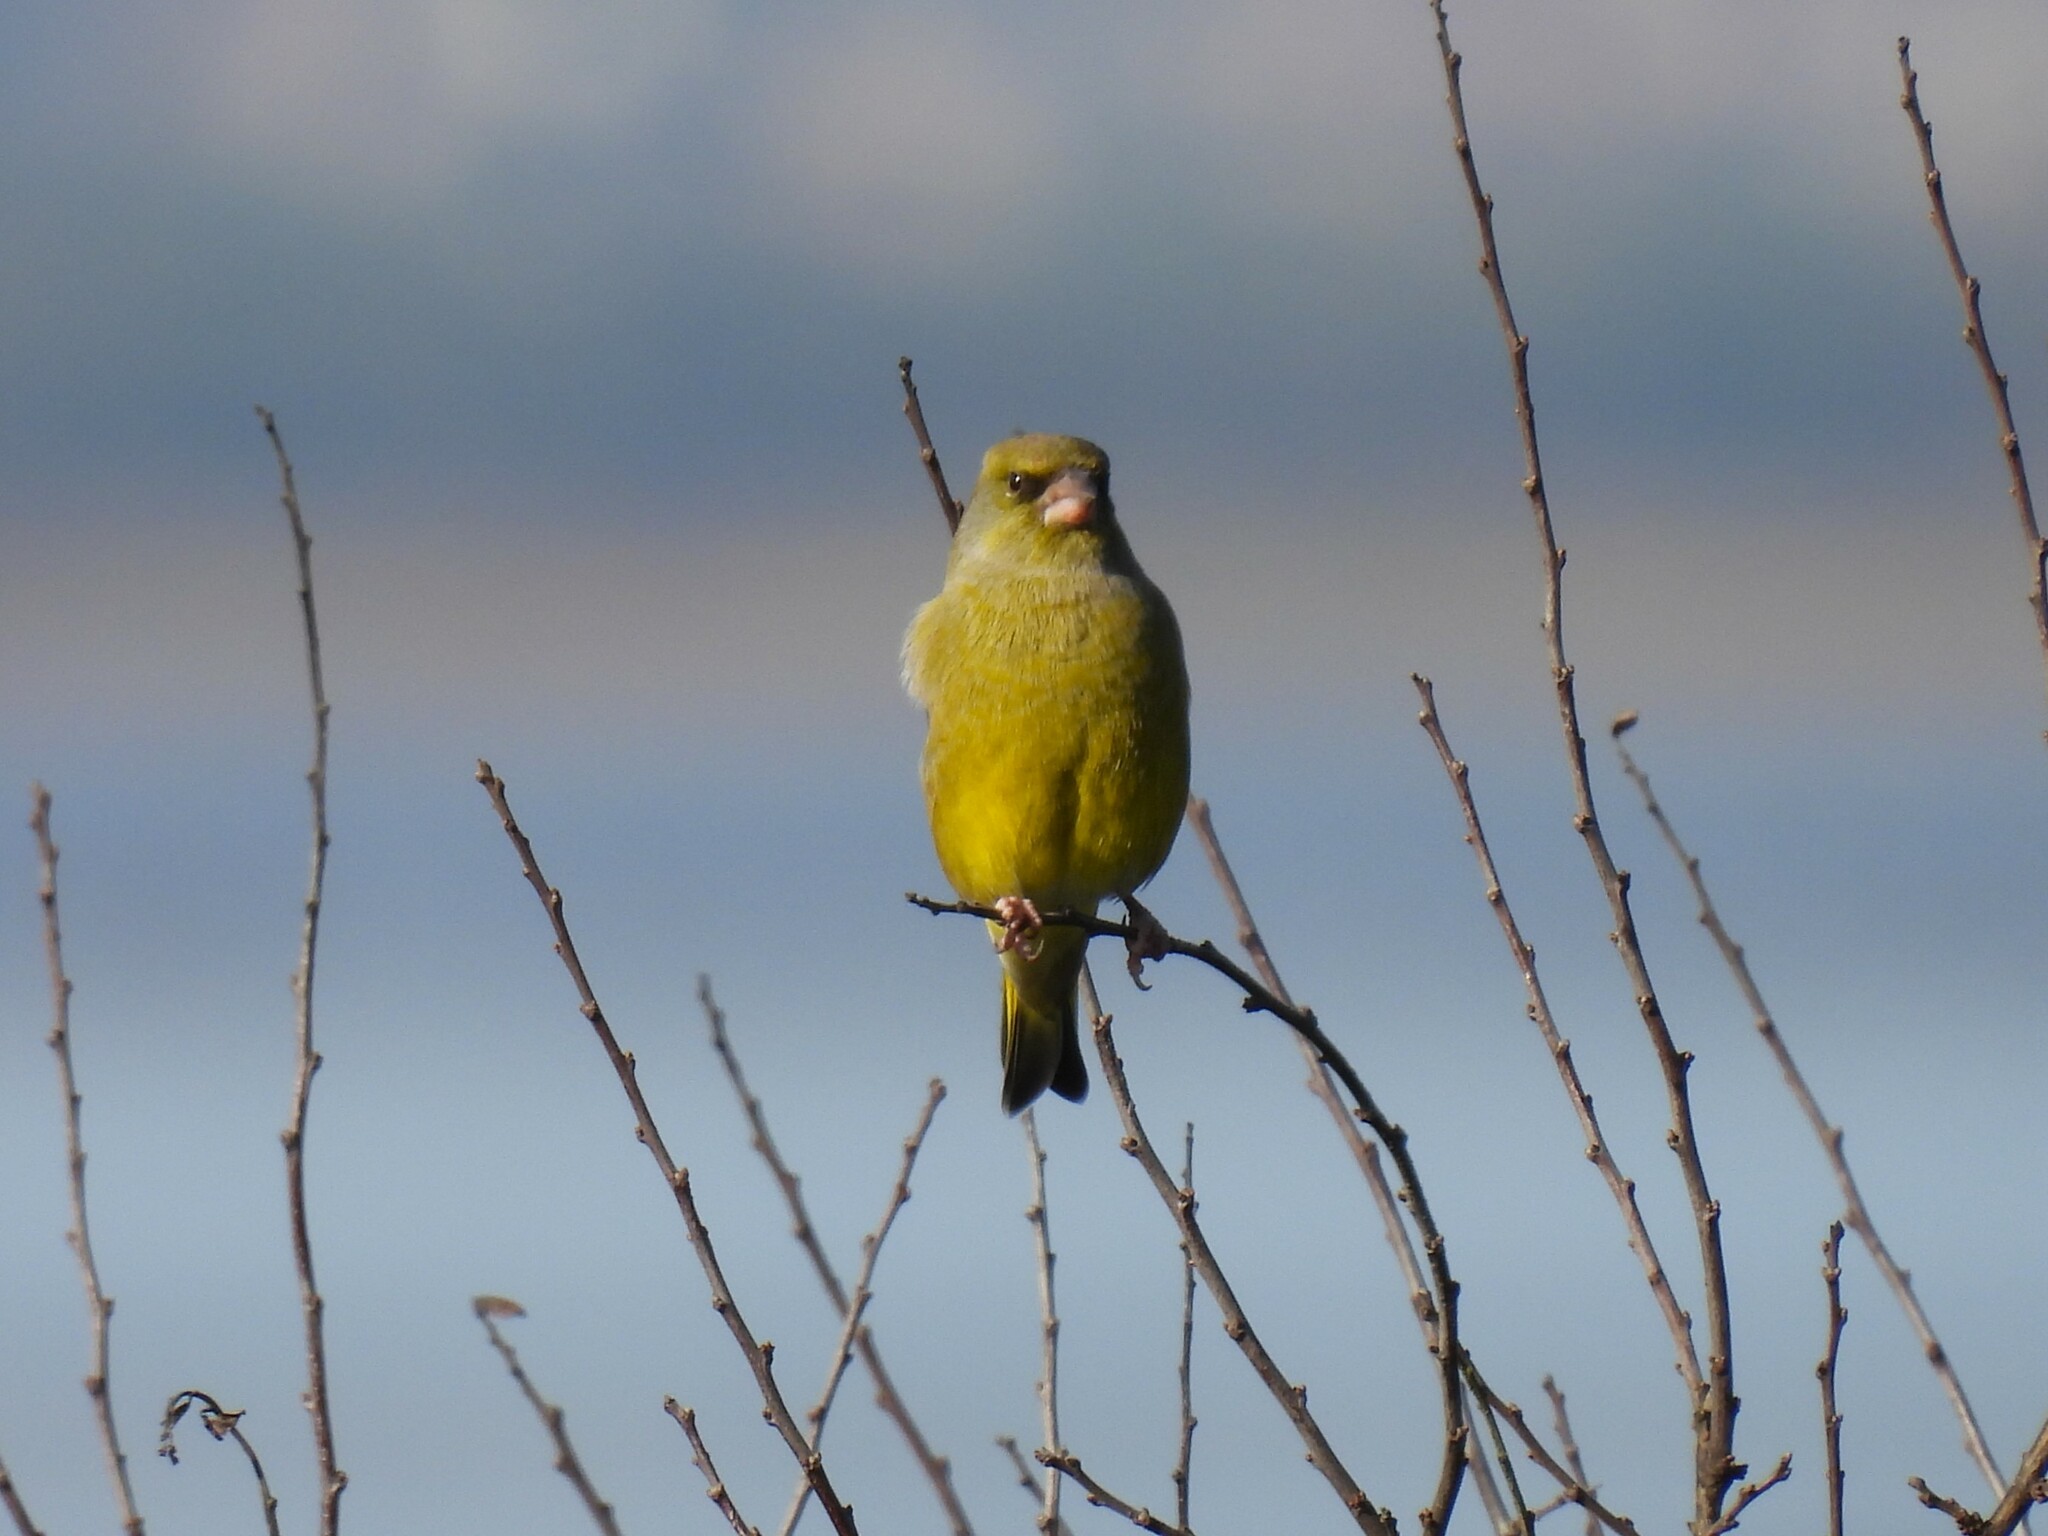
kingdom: Plantae
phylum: Tracheophyta
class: Liliopsida
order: Poales
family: Poaceae
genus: Chloris
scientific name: Chloris chloris
